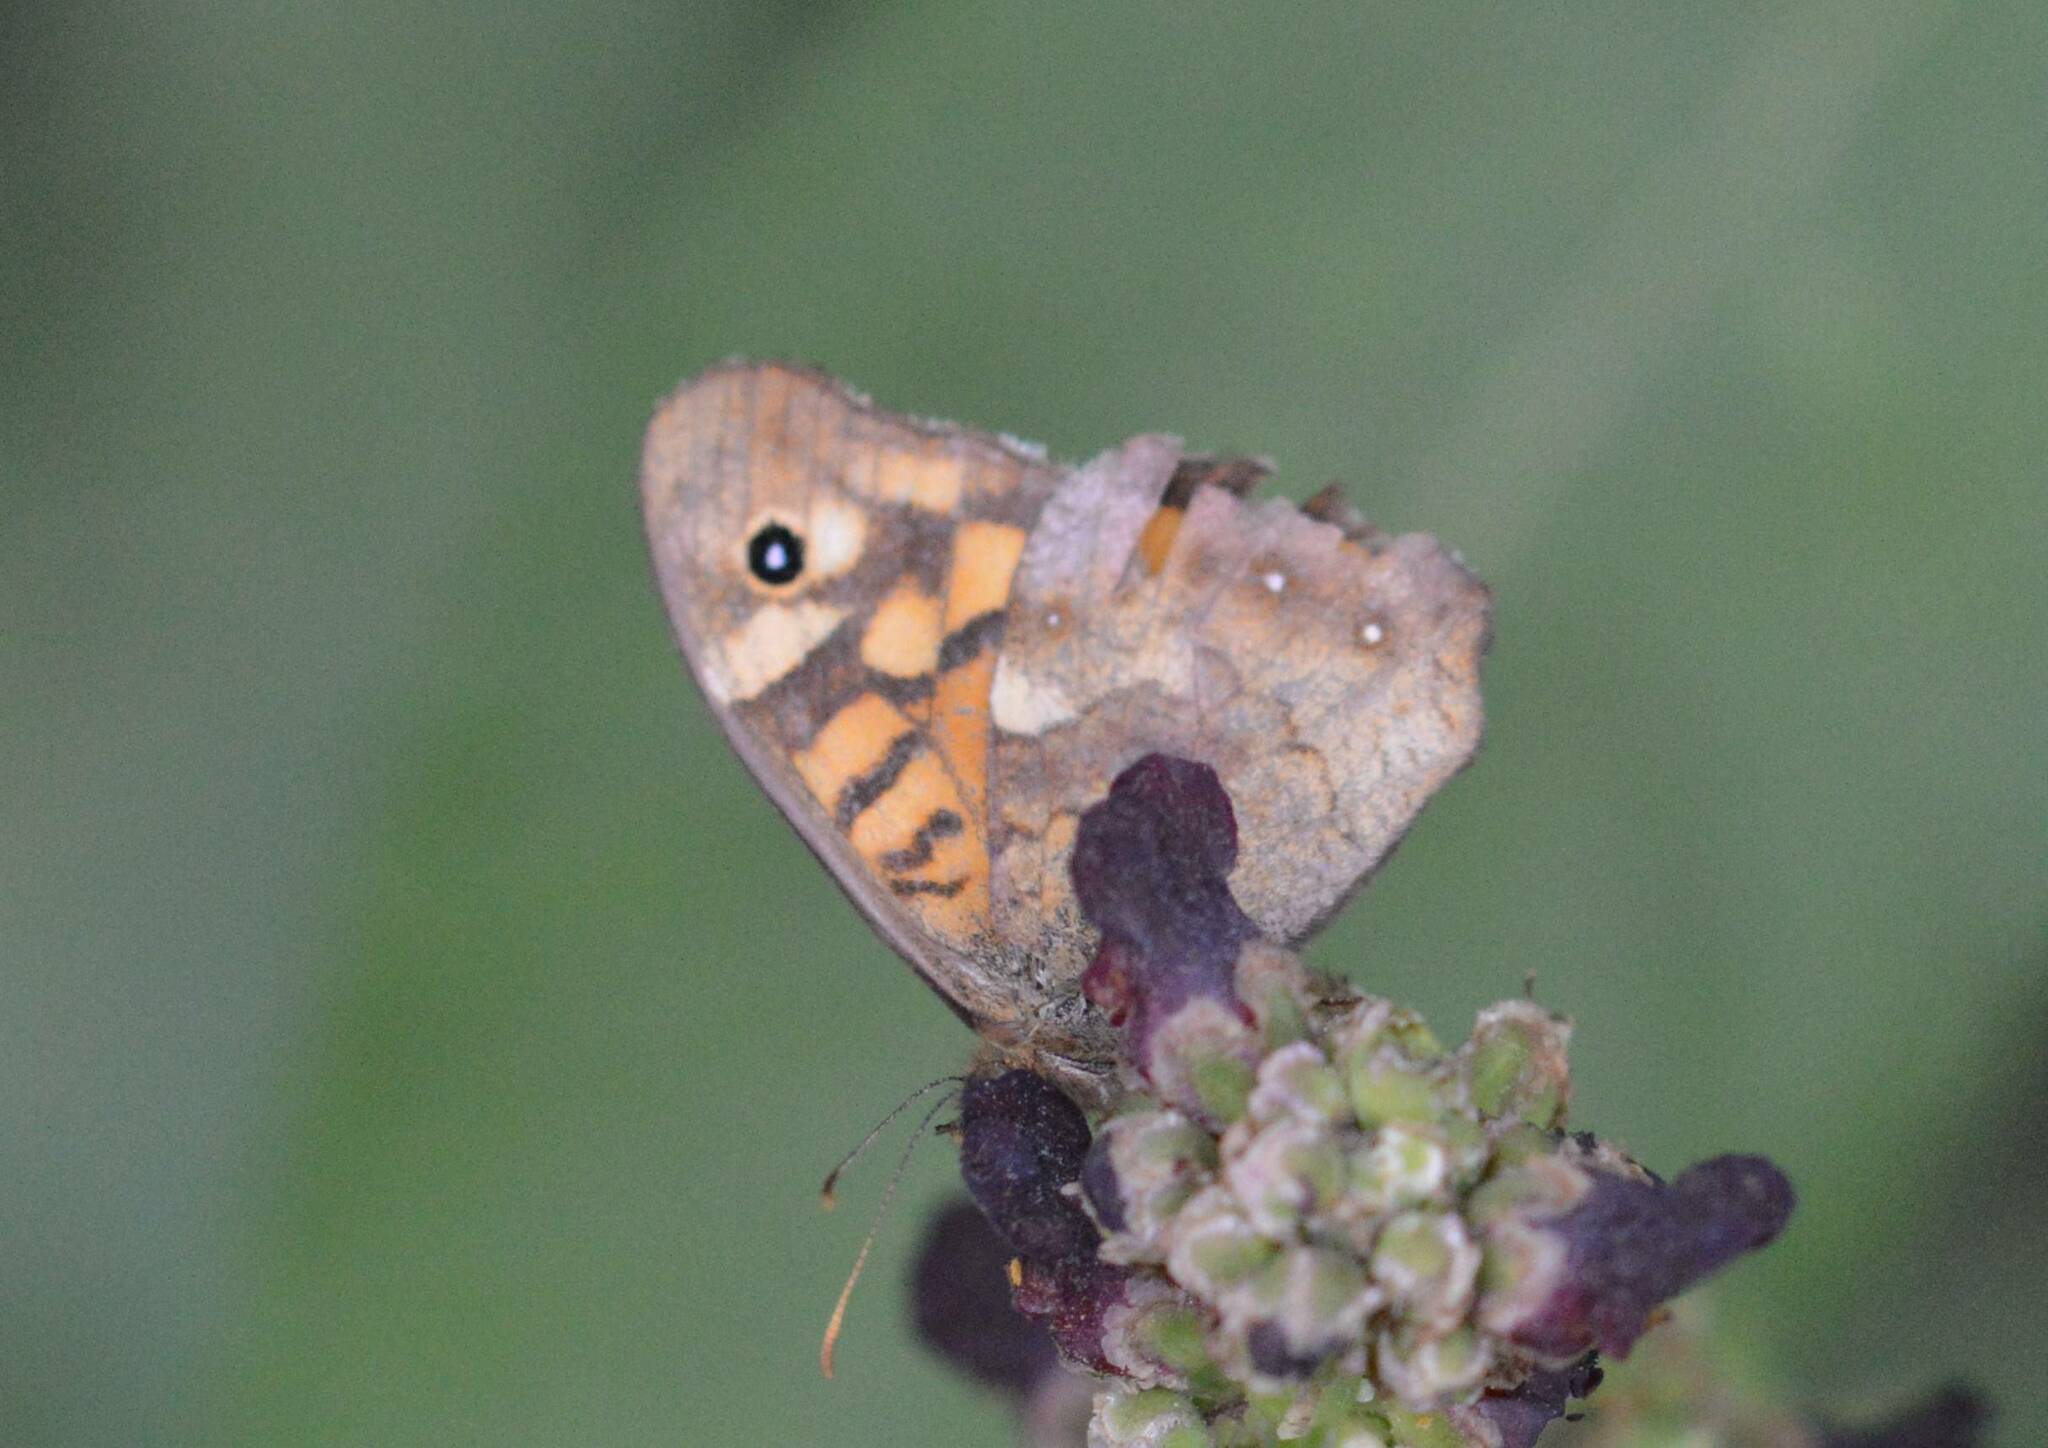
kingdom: Animalia
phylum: Arthropoda
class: Insecta
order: Lepidoptera
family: Nymphalidae
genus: Pararge
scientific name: Pararge aegeria
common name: Speckled wood
